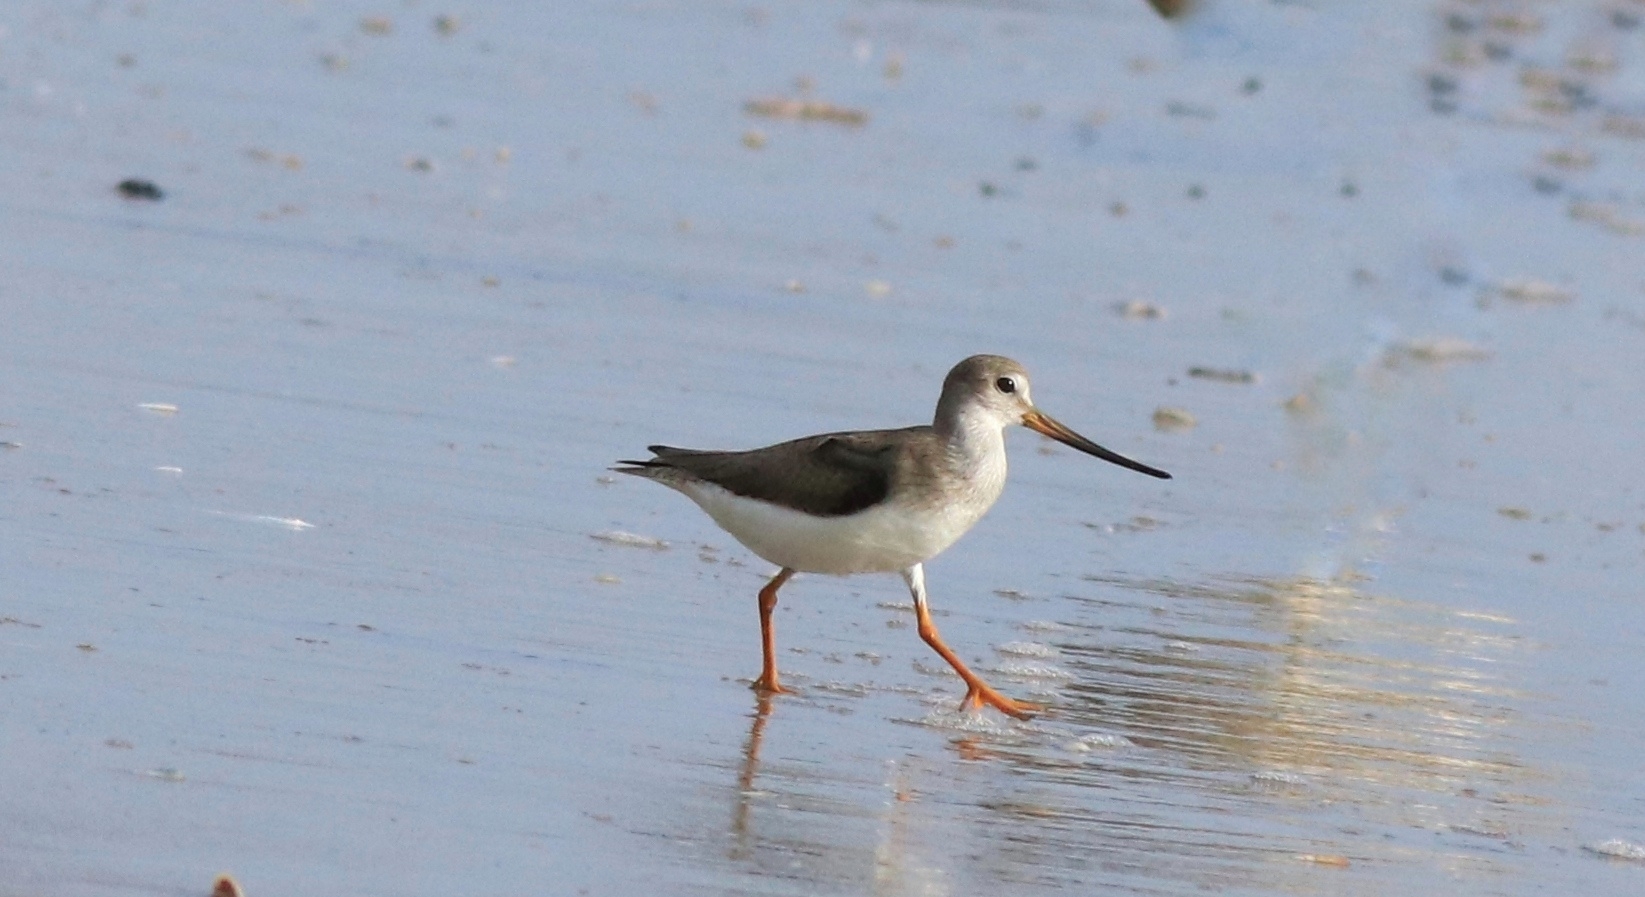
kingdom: Animalia
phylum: Chordata
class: Aves
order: Charadriiformes
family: Scolopacidae
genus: Xenus
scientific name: Xenus cinereus
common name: Terek sandpiper
